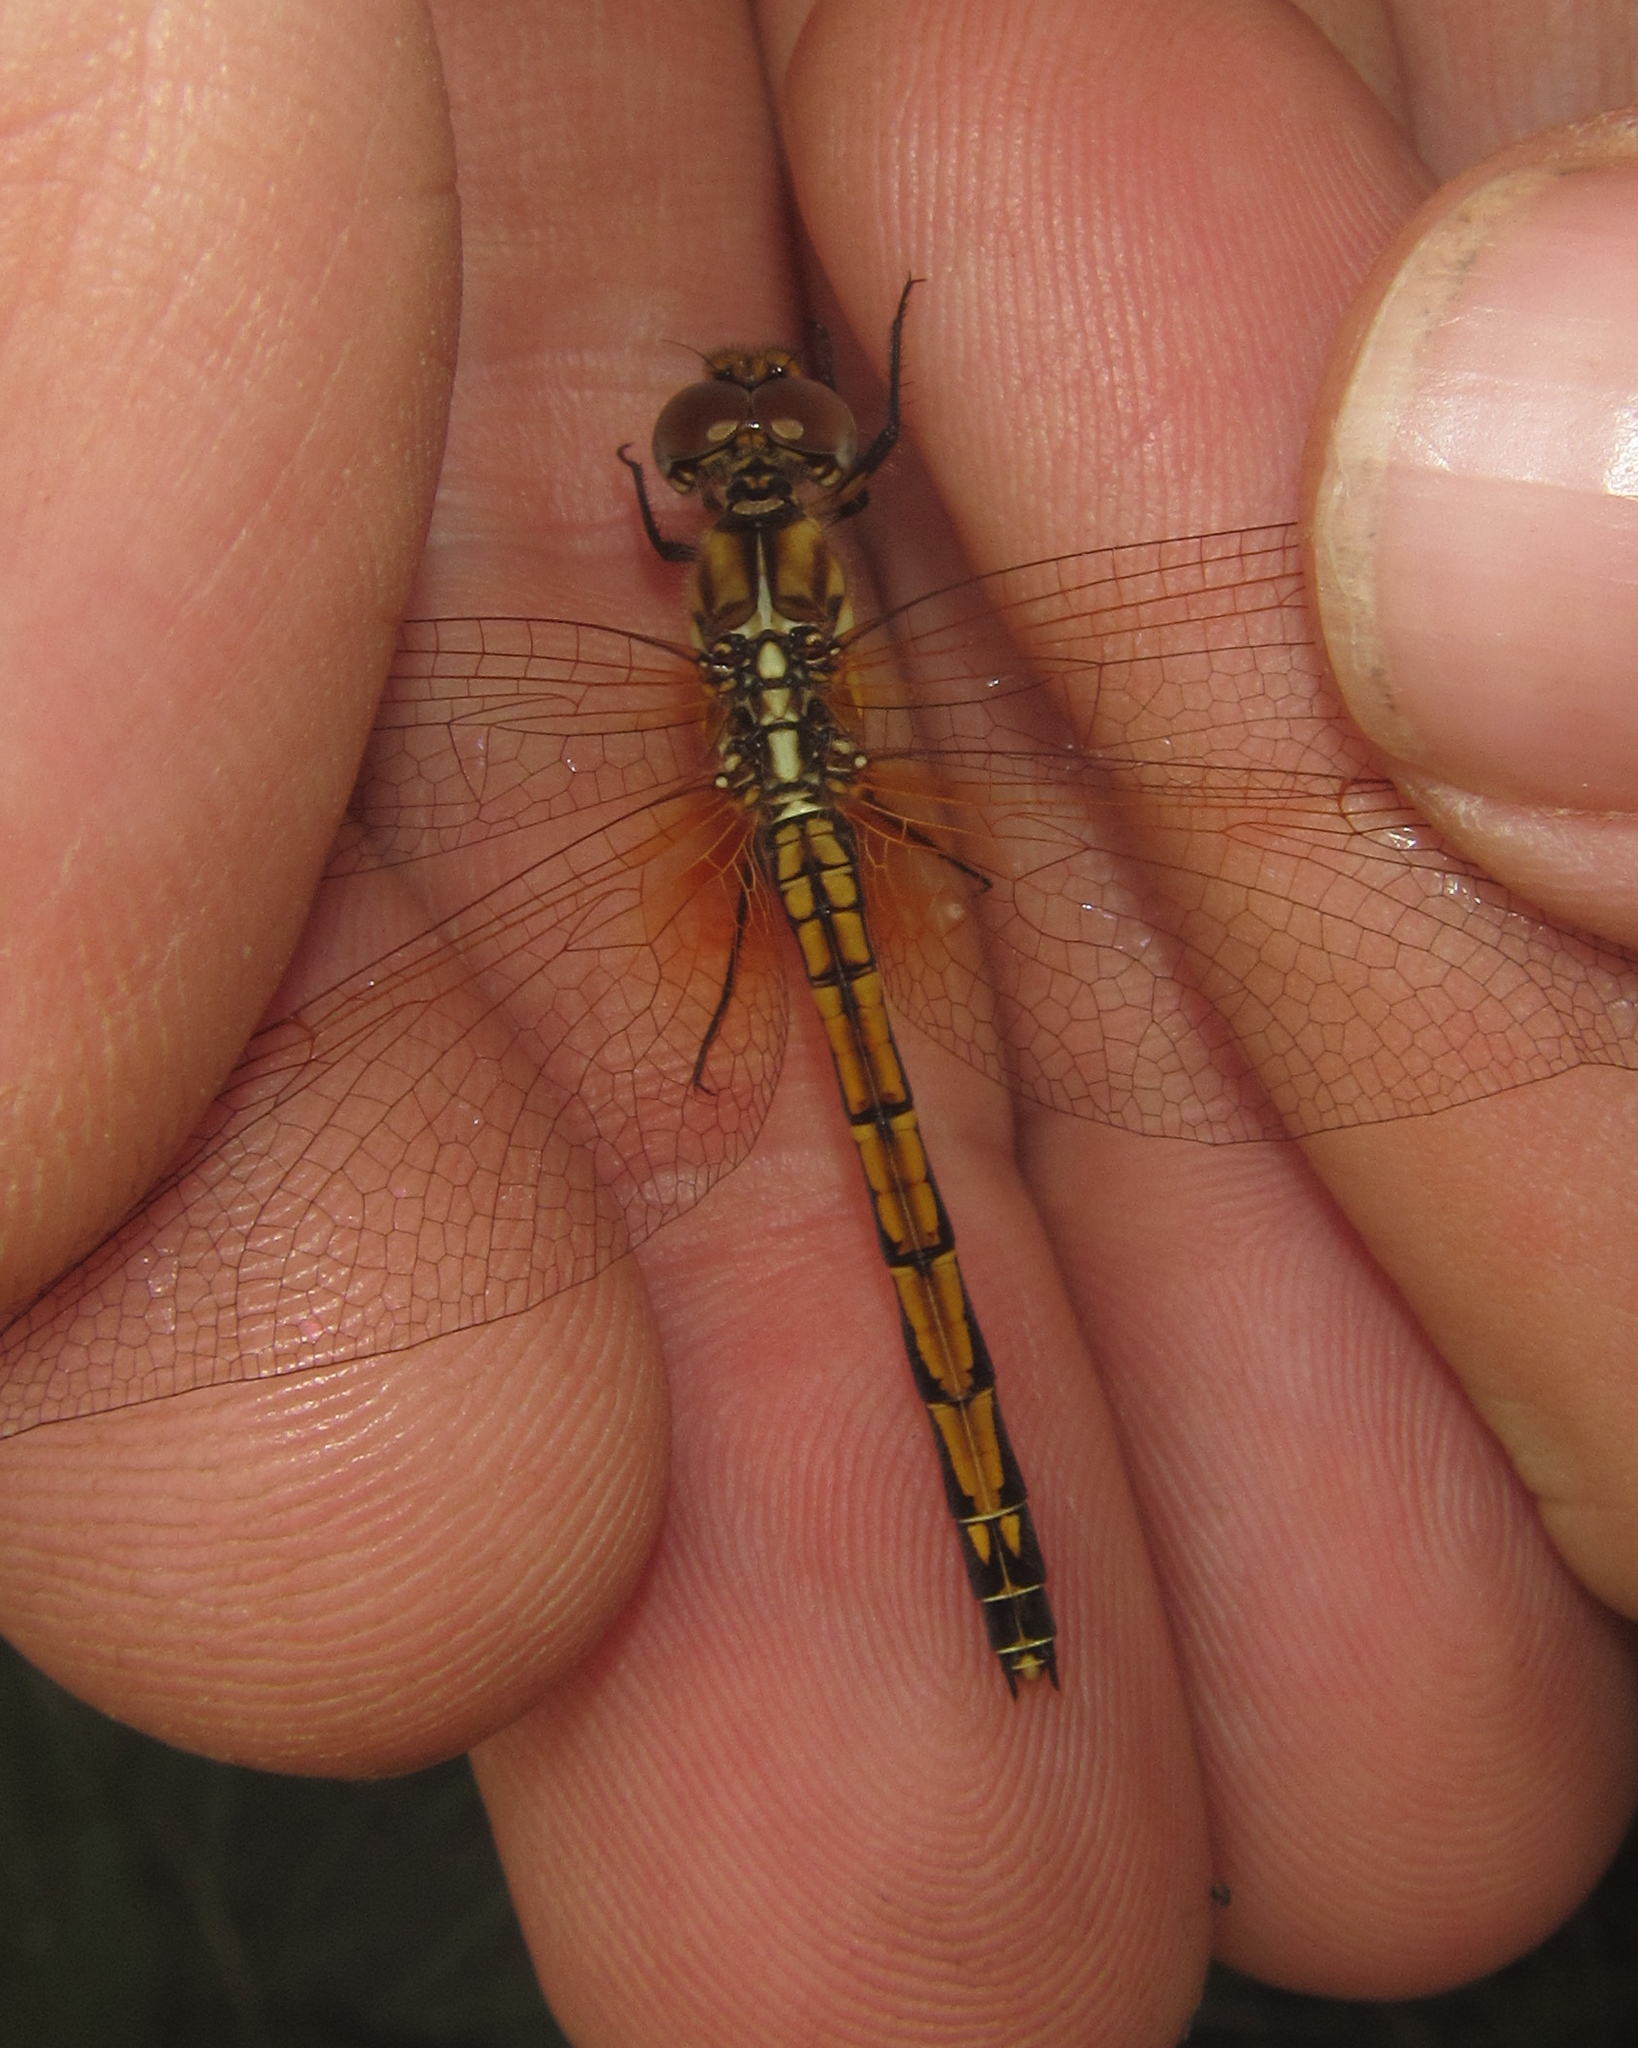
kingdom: Animalia
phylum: Arthropoda
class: Insecta
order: Odonata
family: Libellulidae
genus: Trithemis
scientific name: Trithemis arteriosa
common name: Red-veined dropwing
